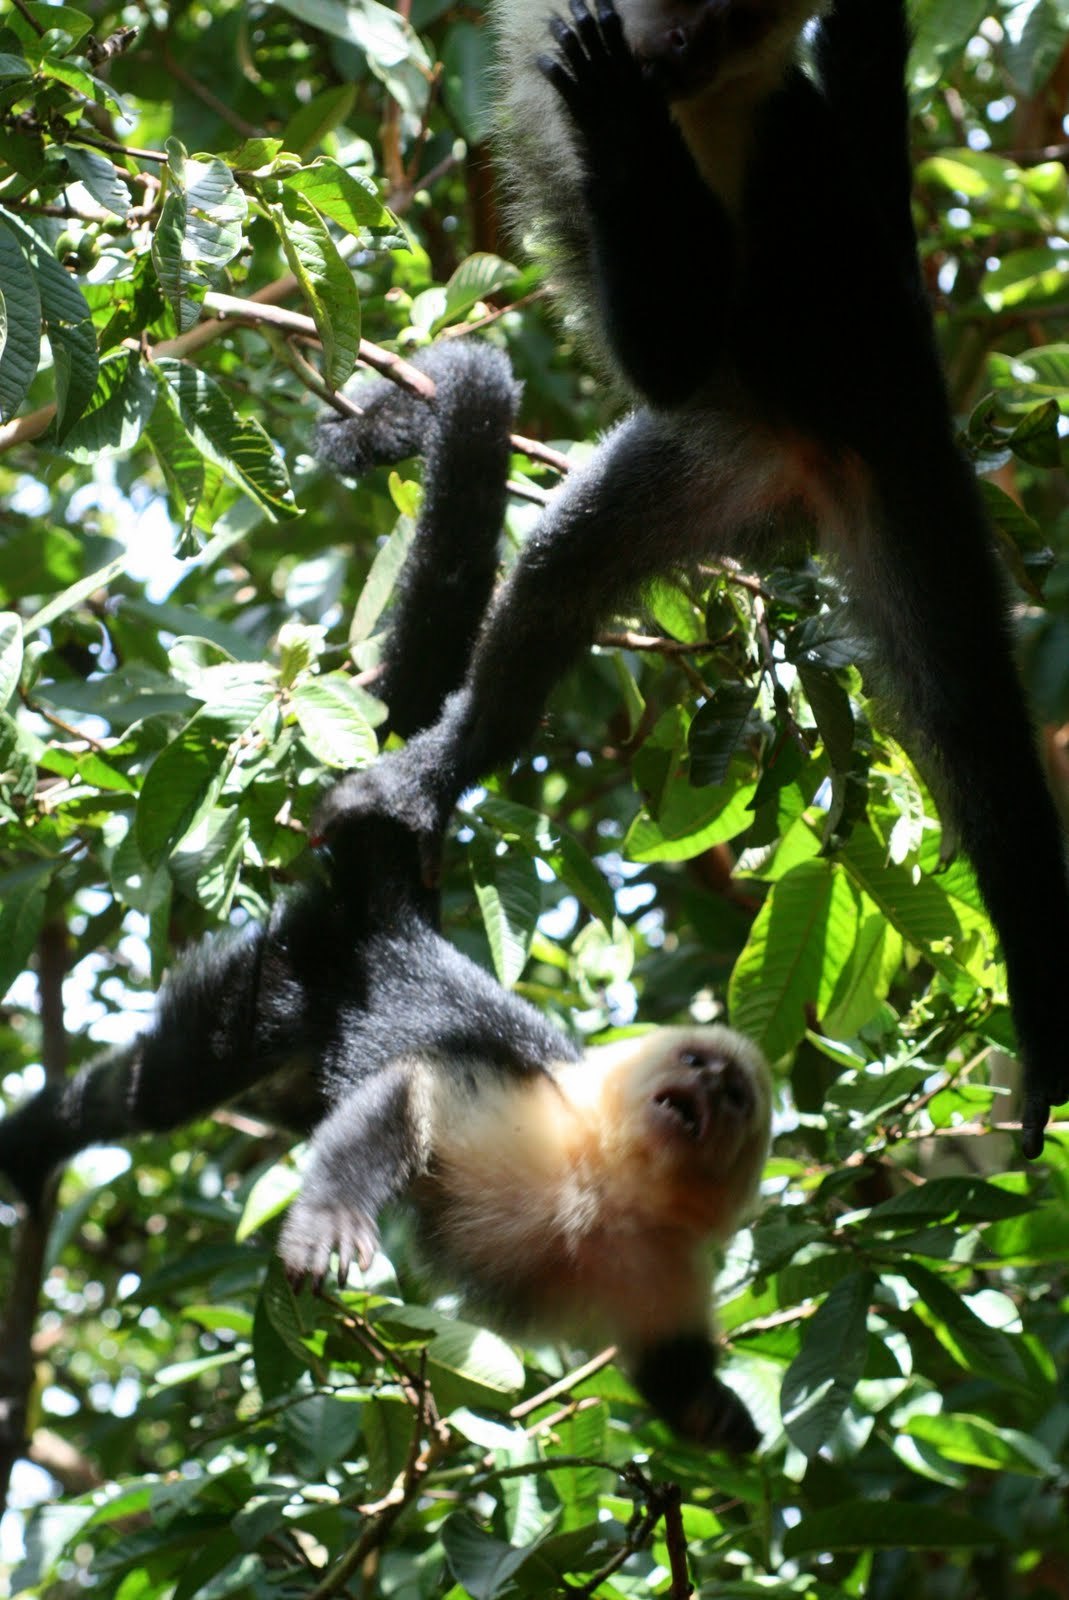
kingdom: Animalia
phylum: Chordata
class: Mammalia
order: Primates
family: Cebidae
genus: Cebus
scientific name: Cebus imitator
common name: Panamanian white-faced capuchin
